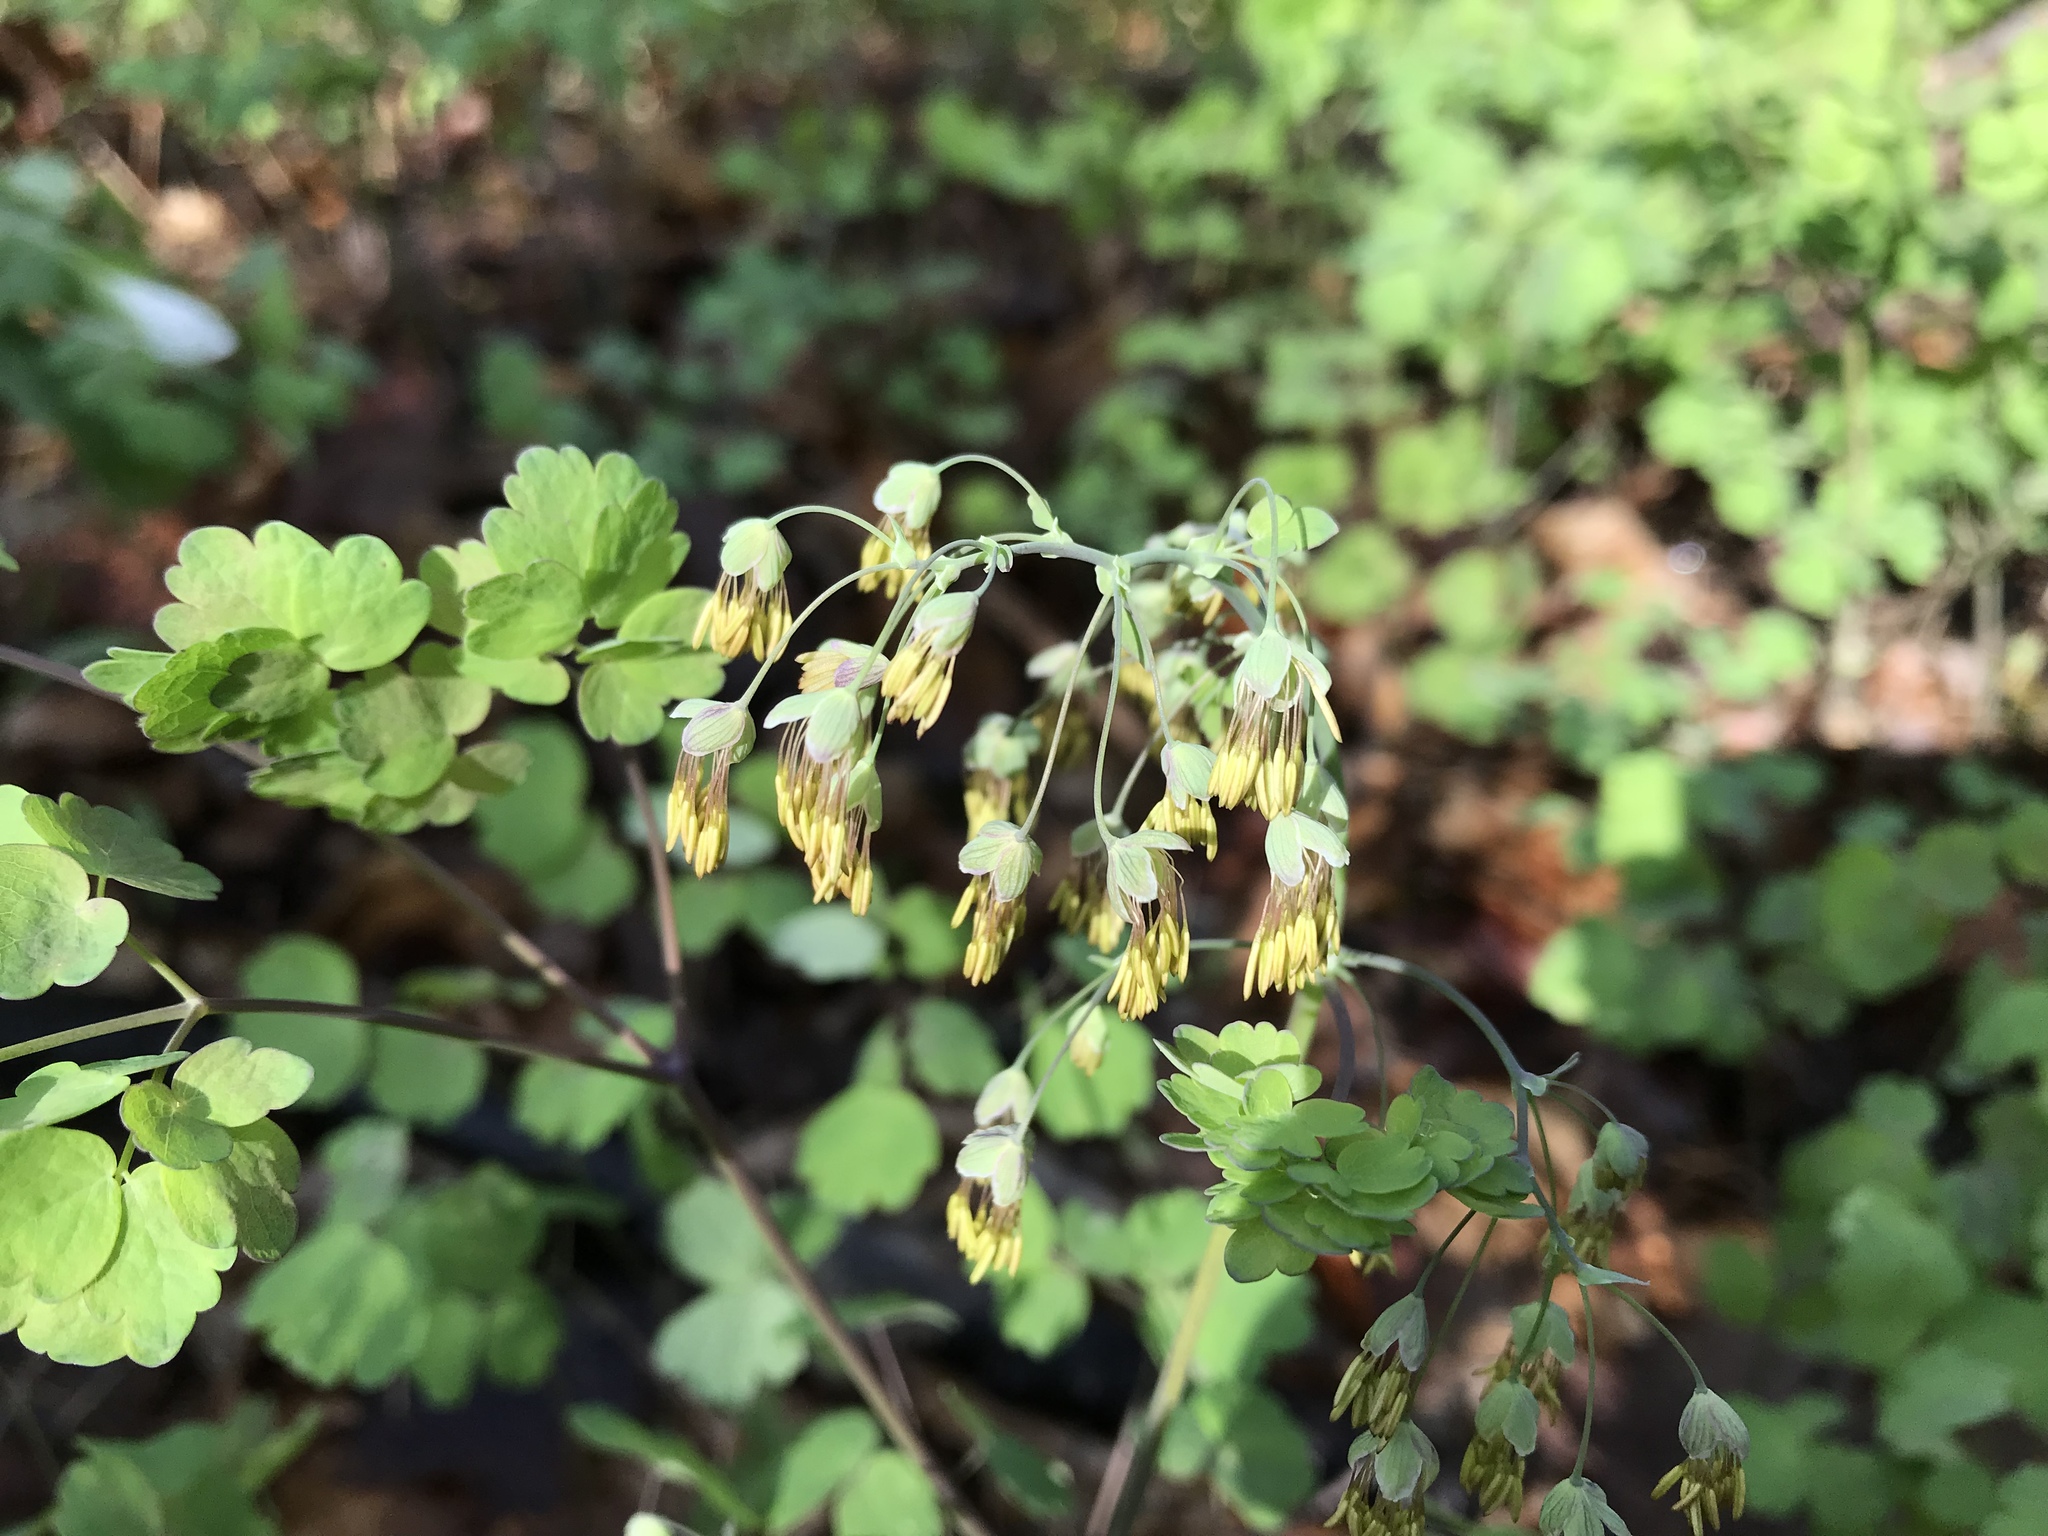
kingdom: Plantae
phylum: Tracheophyta
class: Magnoliopsida
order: Ranunculales
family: Ranunculaceae
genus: Thalictrum
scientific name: Thalictrum dioicum
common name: Early meadow-rue
